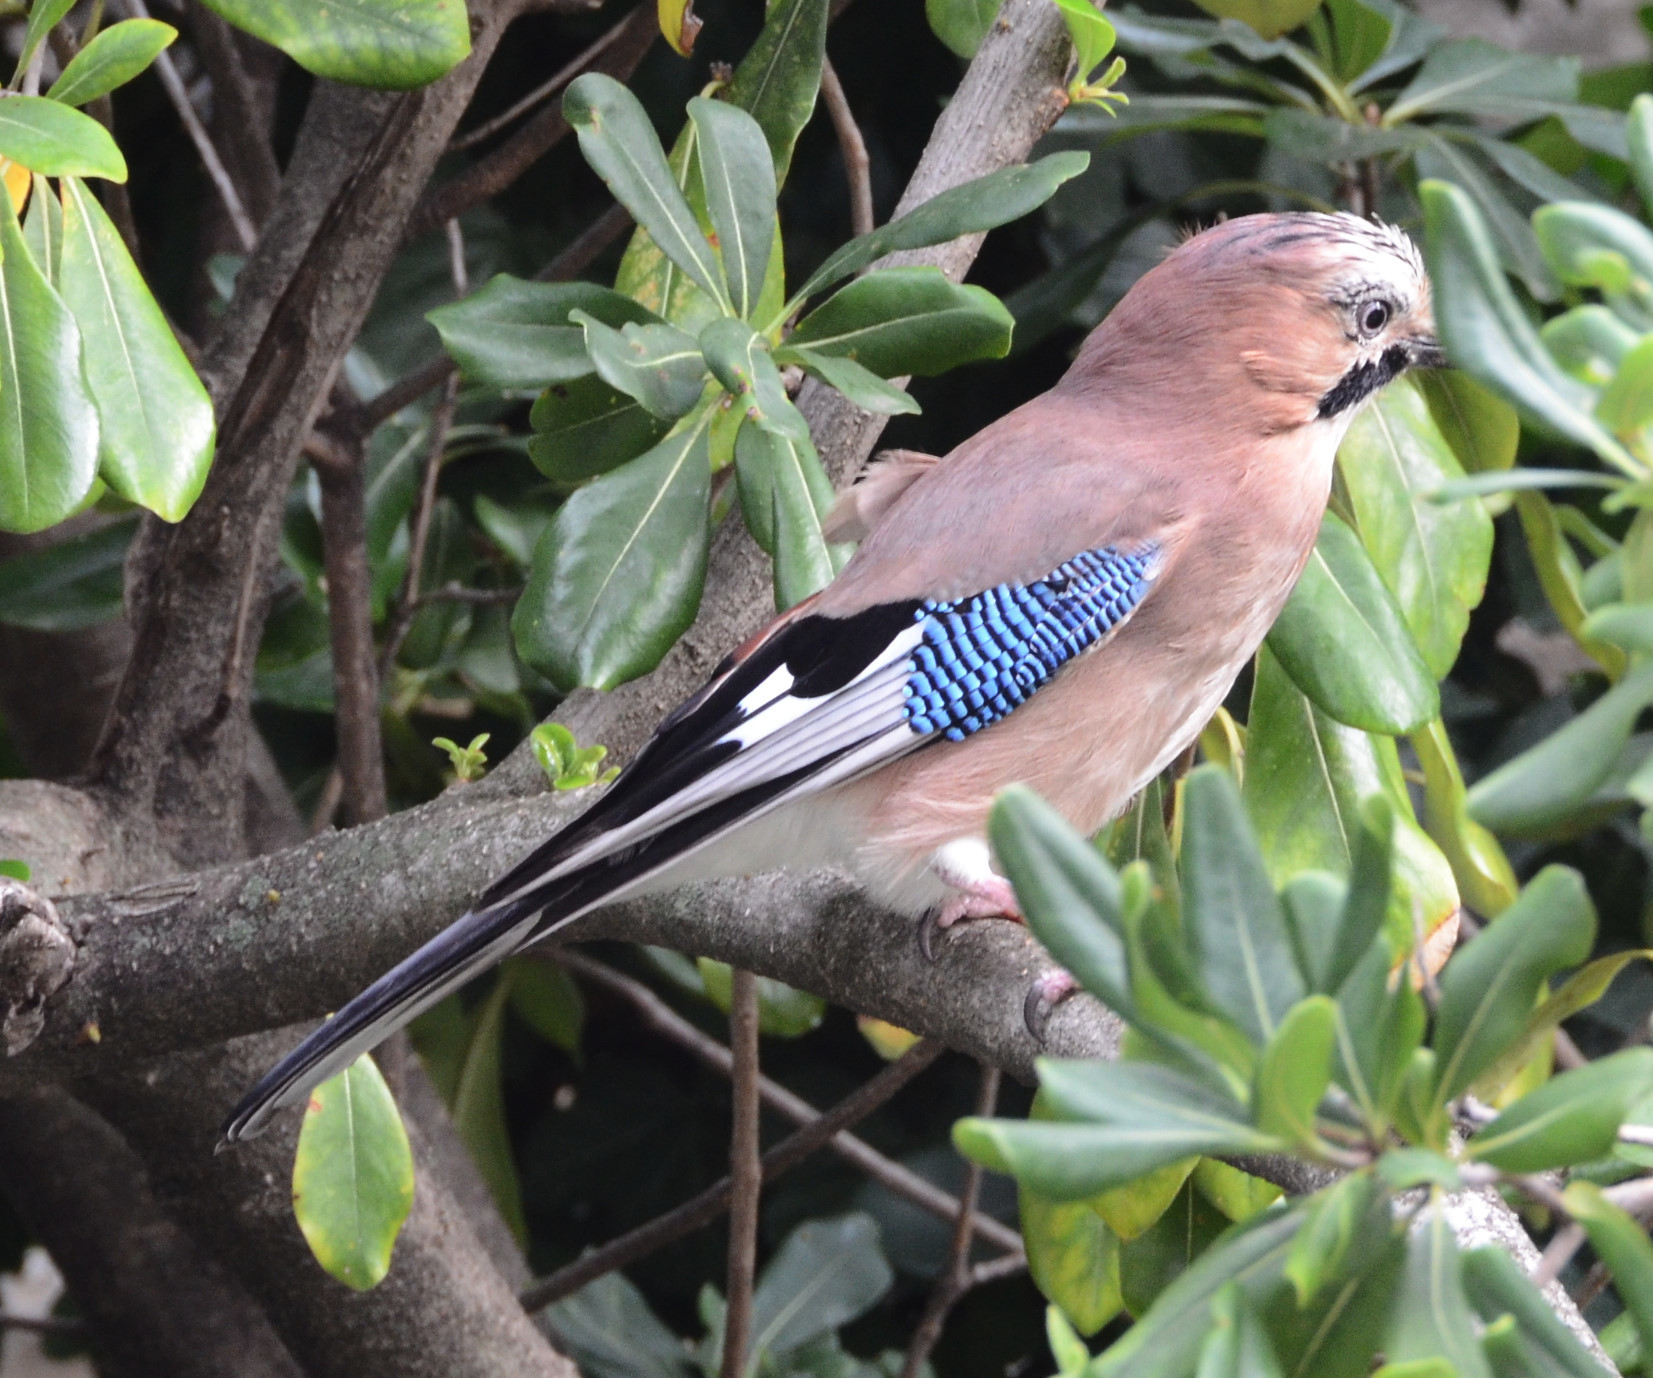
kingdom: Animalia
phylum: Chordata
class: Aves
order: Passeriformes
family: Corvidae
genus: Garrulus
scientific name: Garrulus glandarius
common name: Eurasian jay
